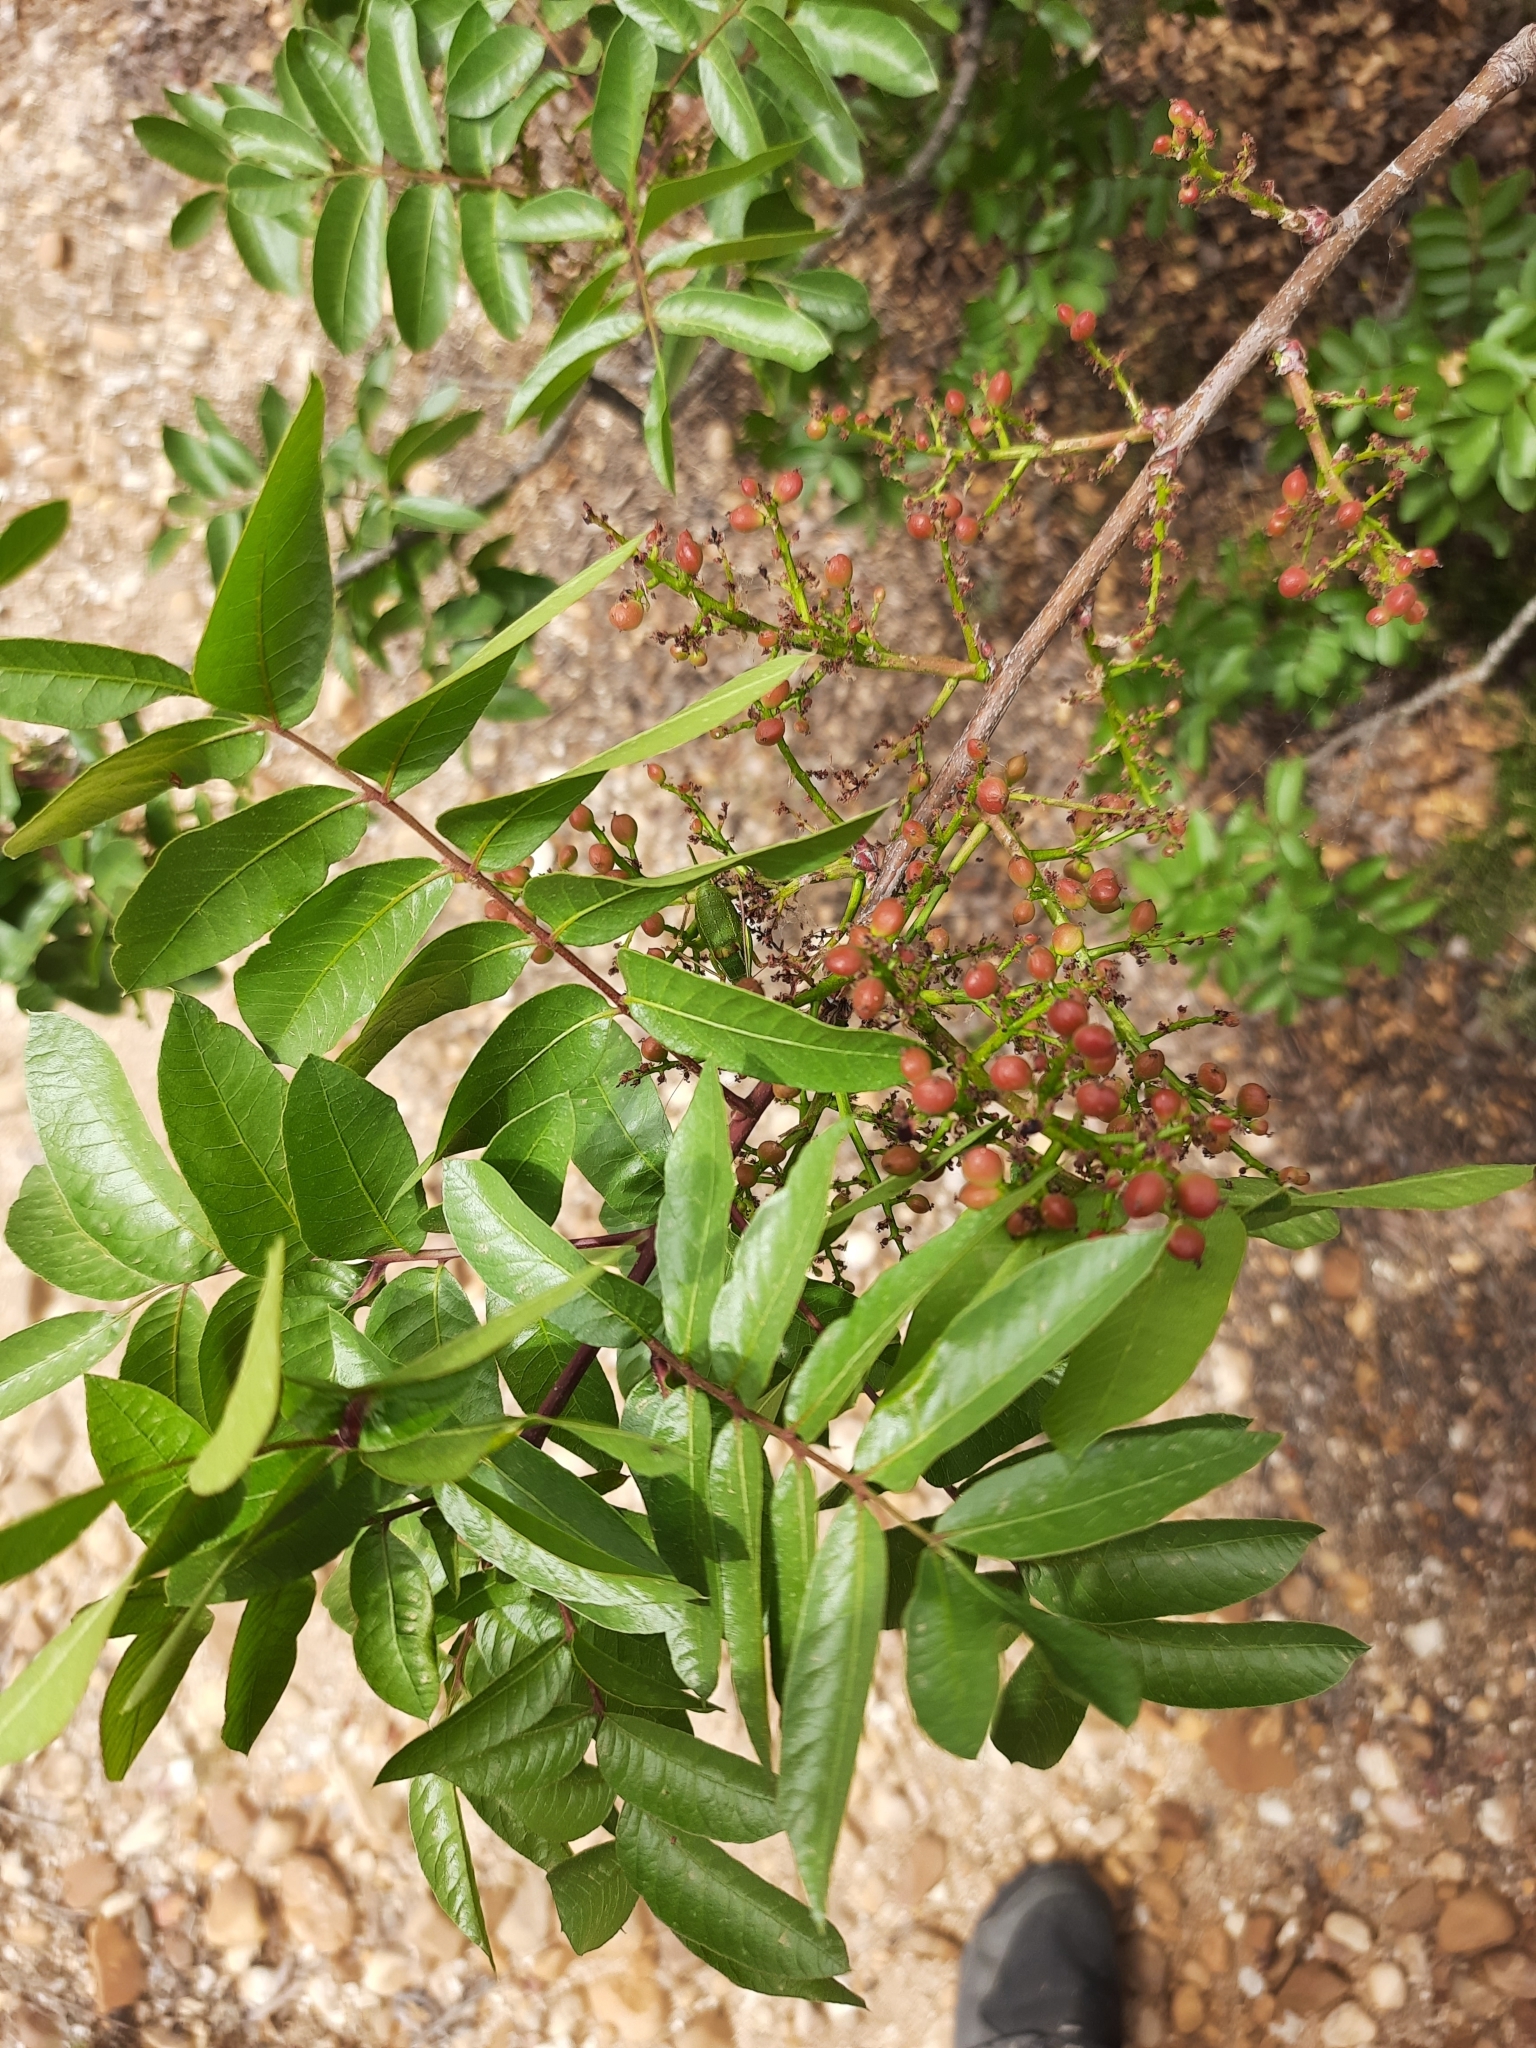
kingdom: Plantae
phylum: Tracheophyta
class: Magnoliopsida
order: Sapindales
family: Anacardiaceae
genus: Pistacia
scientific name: Pistacia terebinthus
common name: Terebinth
